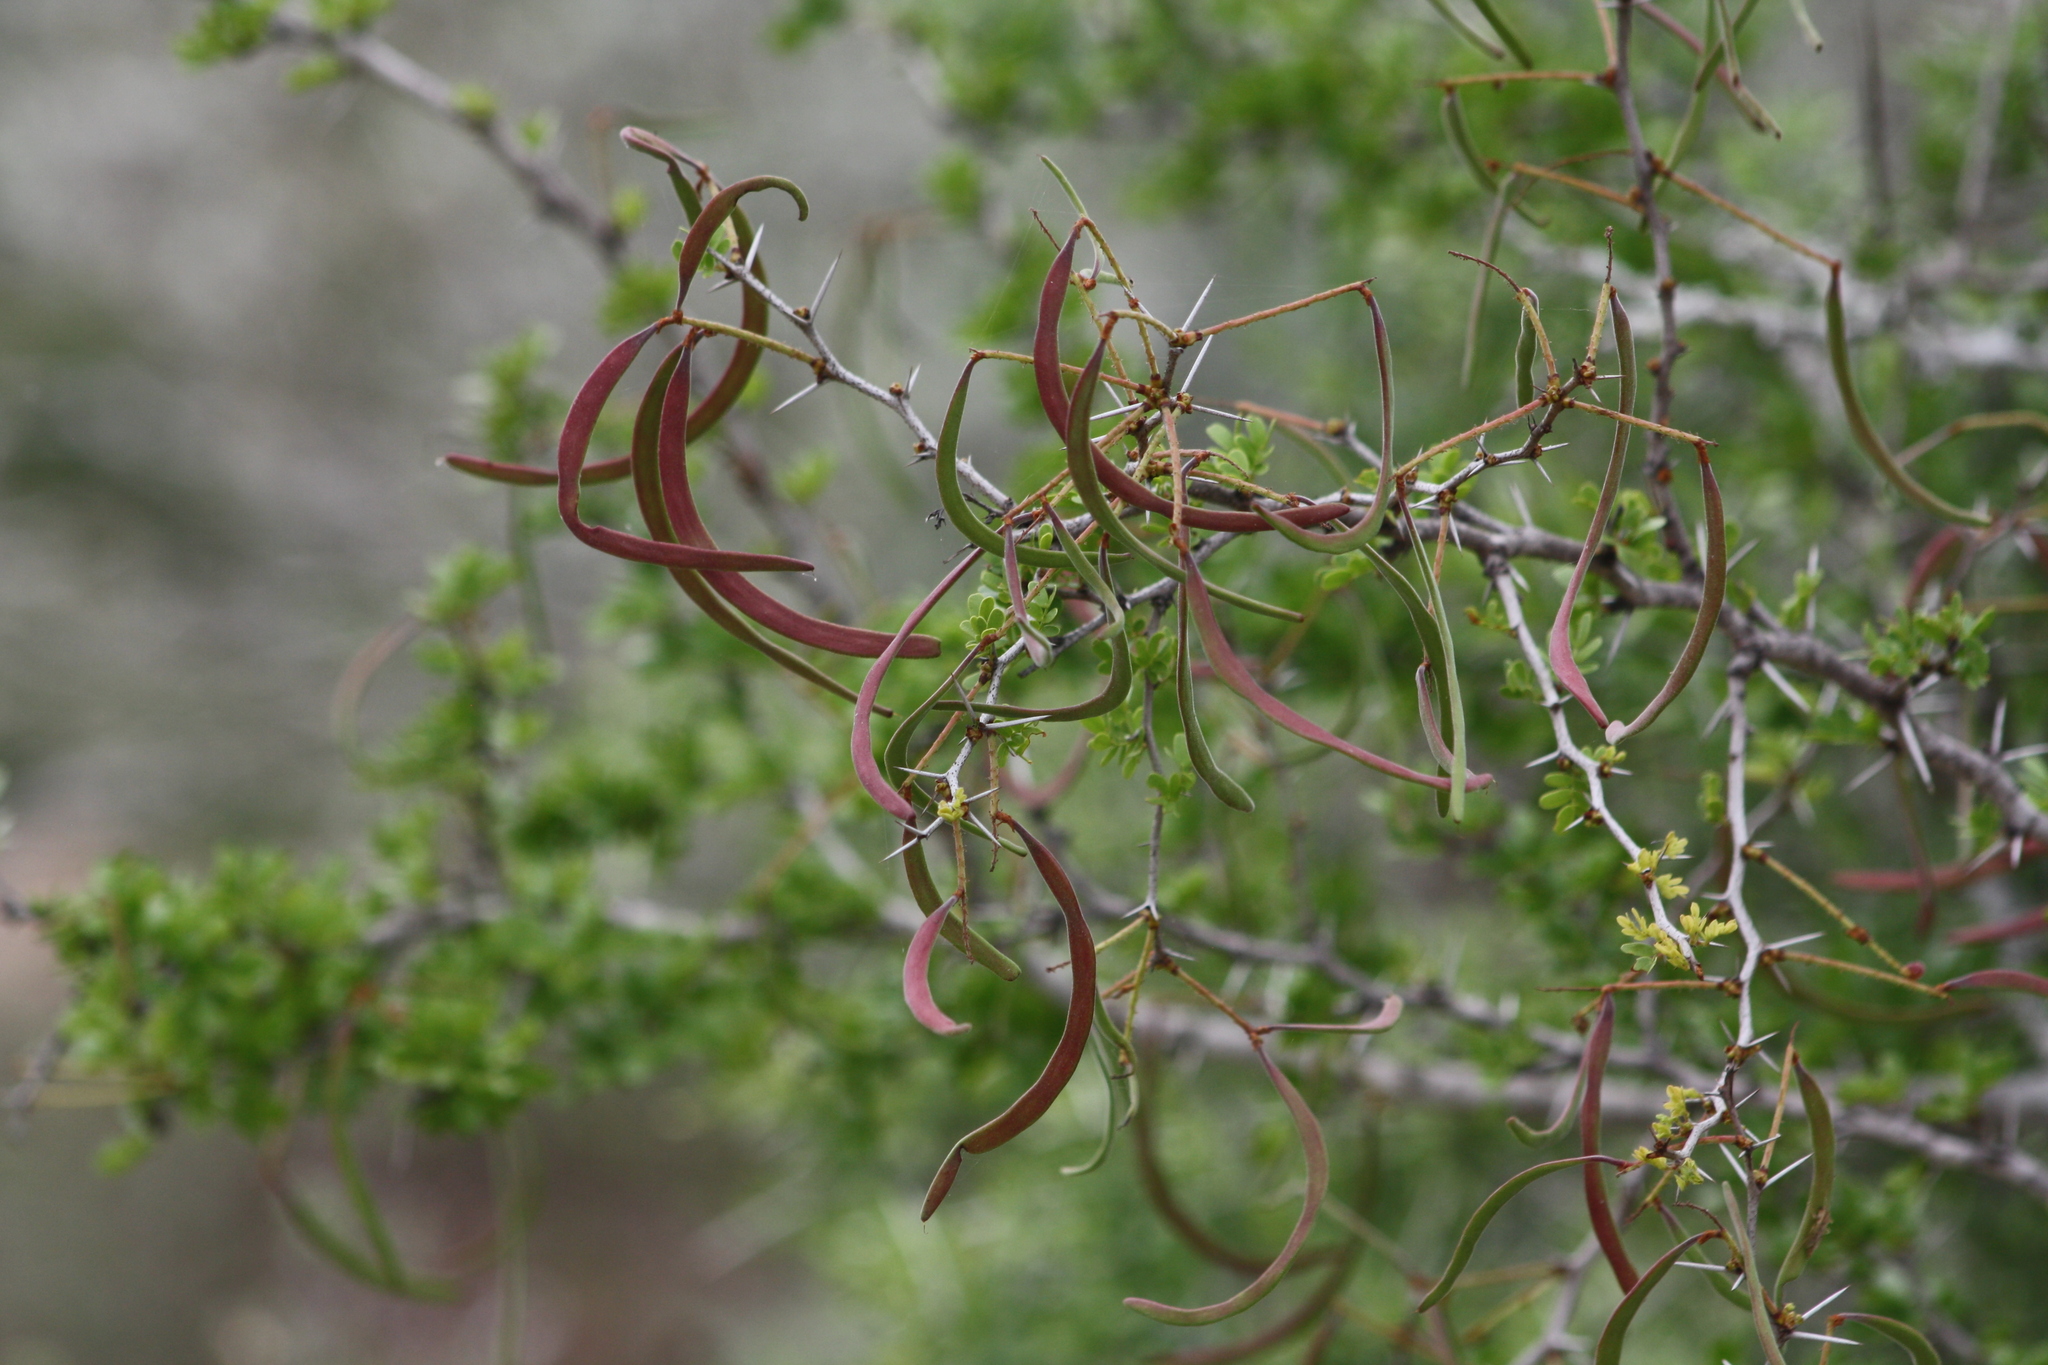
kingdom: Plantae
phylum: Tracheophyta
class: Magnoliopsida
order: Fabales
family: Fabaceae
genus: Vachellia
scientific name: Vachellia rigidula
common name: Blackbrush
